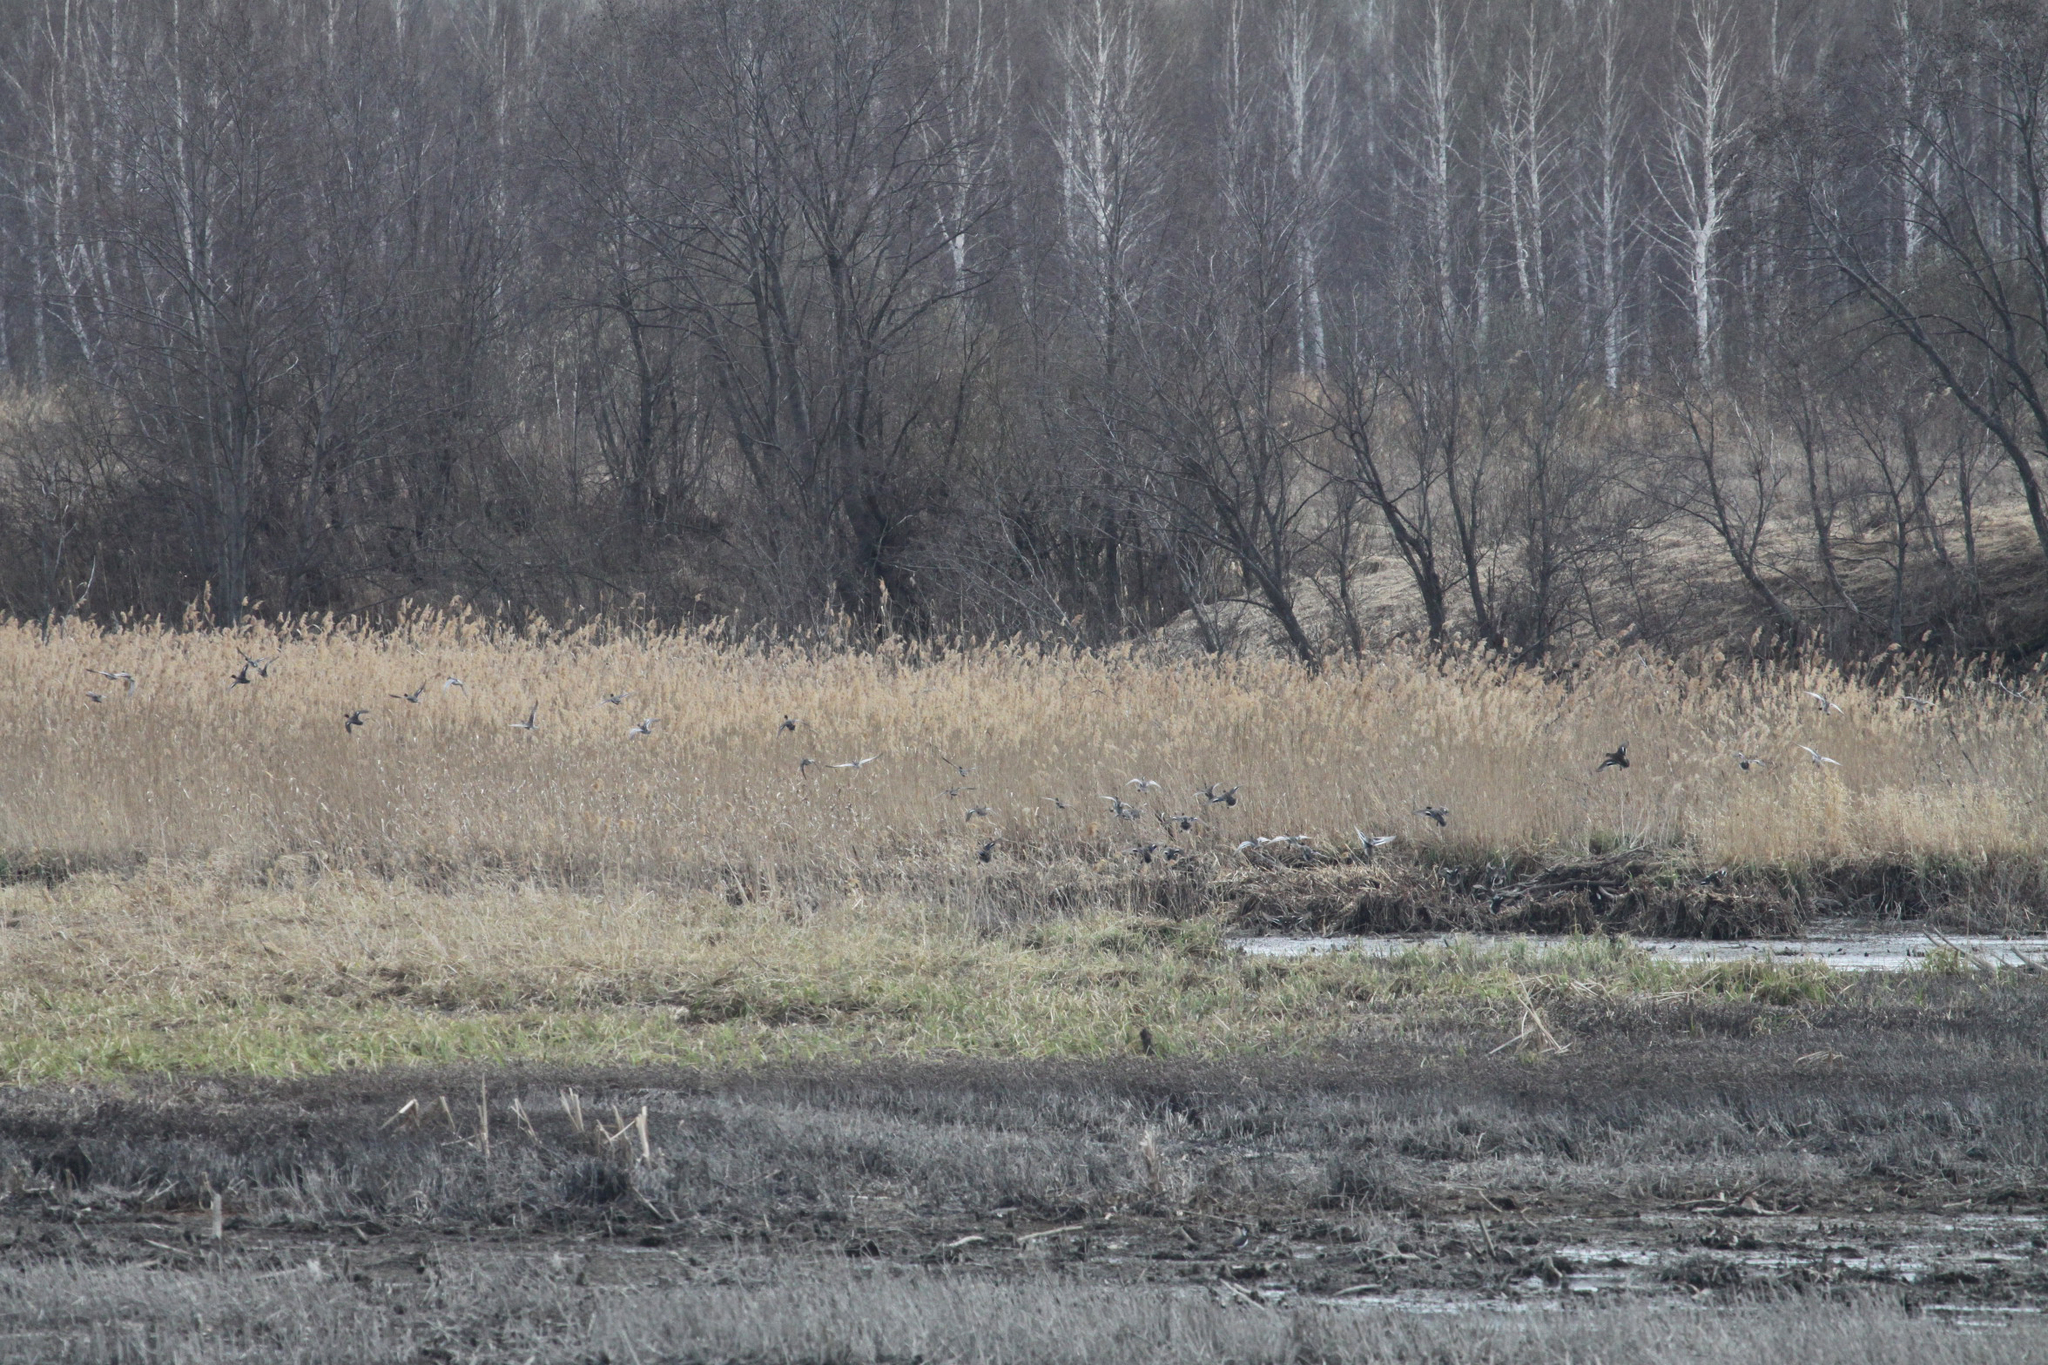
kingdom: Animalia
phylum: Chordata
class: Aves
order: Anseriformes
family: Anatidae
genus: Anas
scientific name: Anas crecca
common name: Eurasian teal
